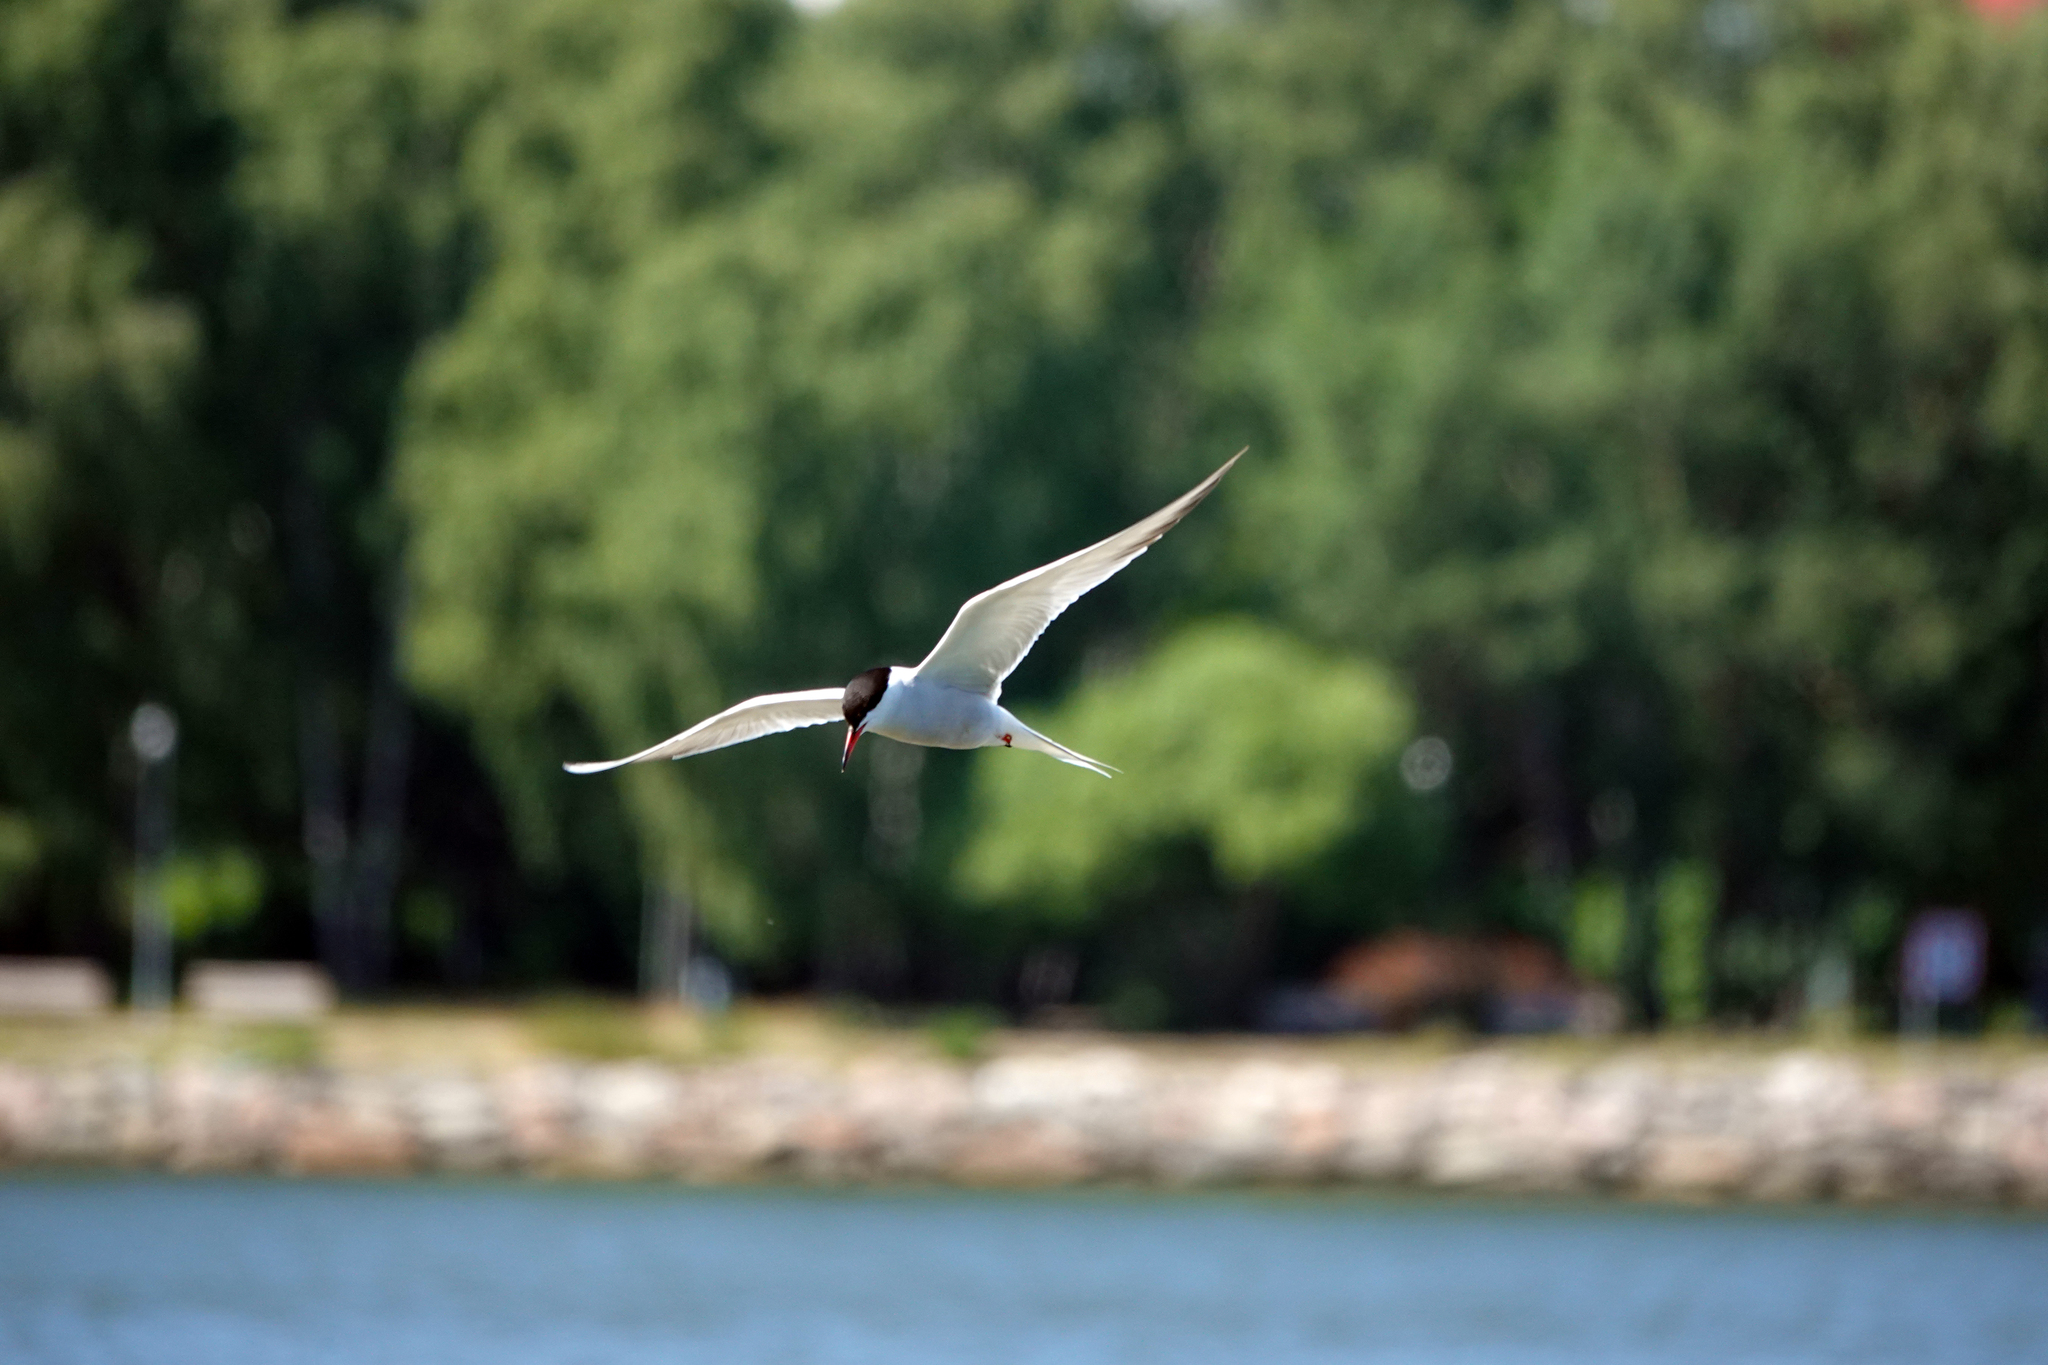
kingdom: Animalia
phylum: Chordata
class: Aves
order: Charadriiformes
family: Laridae
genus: Sterna
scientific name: Sterna hirundo
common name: Common tern
